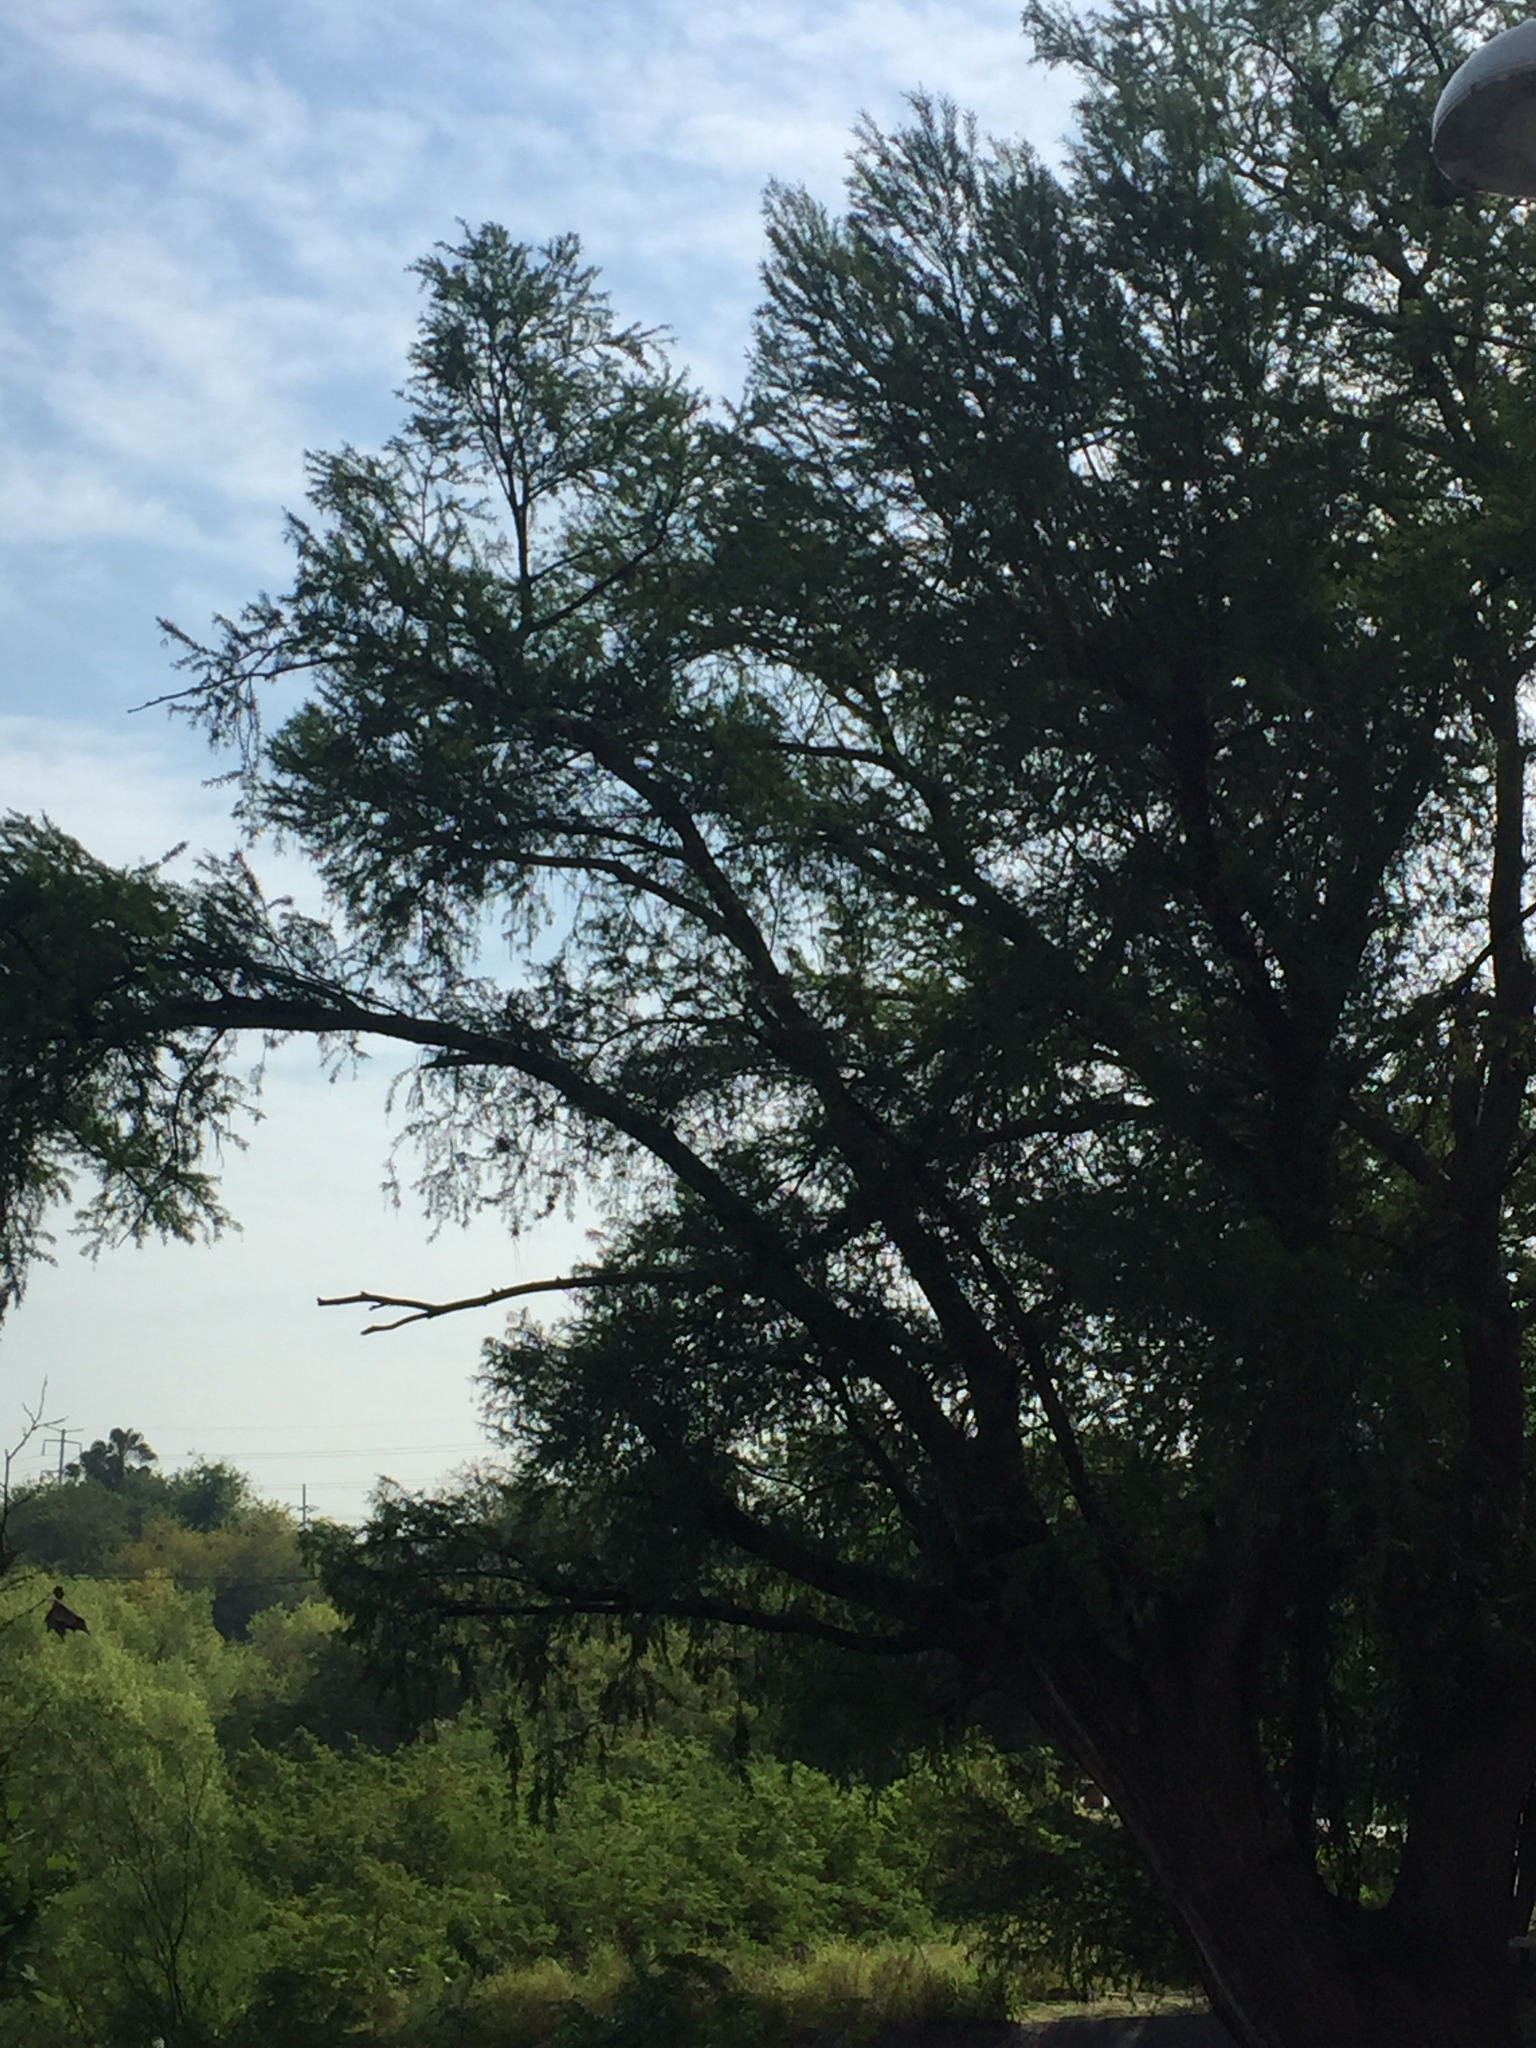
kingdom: Plantae
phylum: Tracheophyta
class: Pinopsida
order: Pinales
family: Cupressaceae
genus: Taxodium
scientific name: Taxodium mucronatum
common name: Montezume bald cypress
